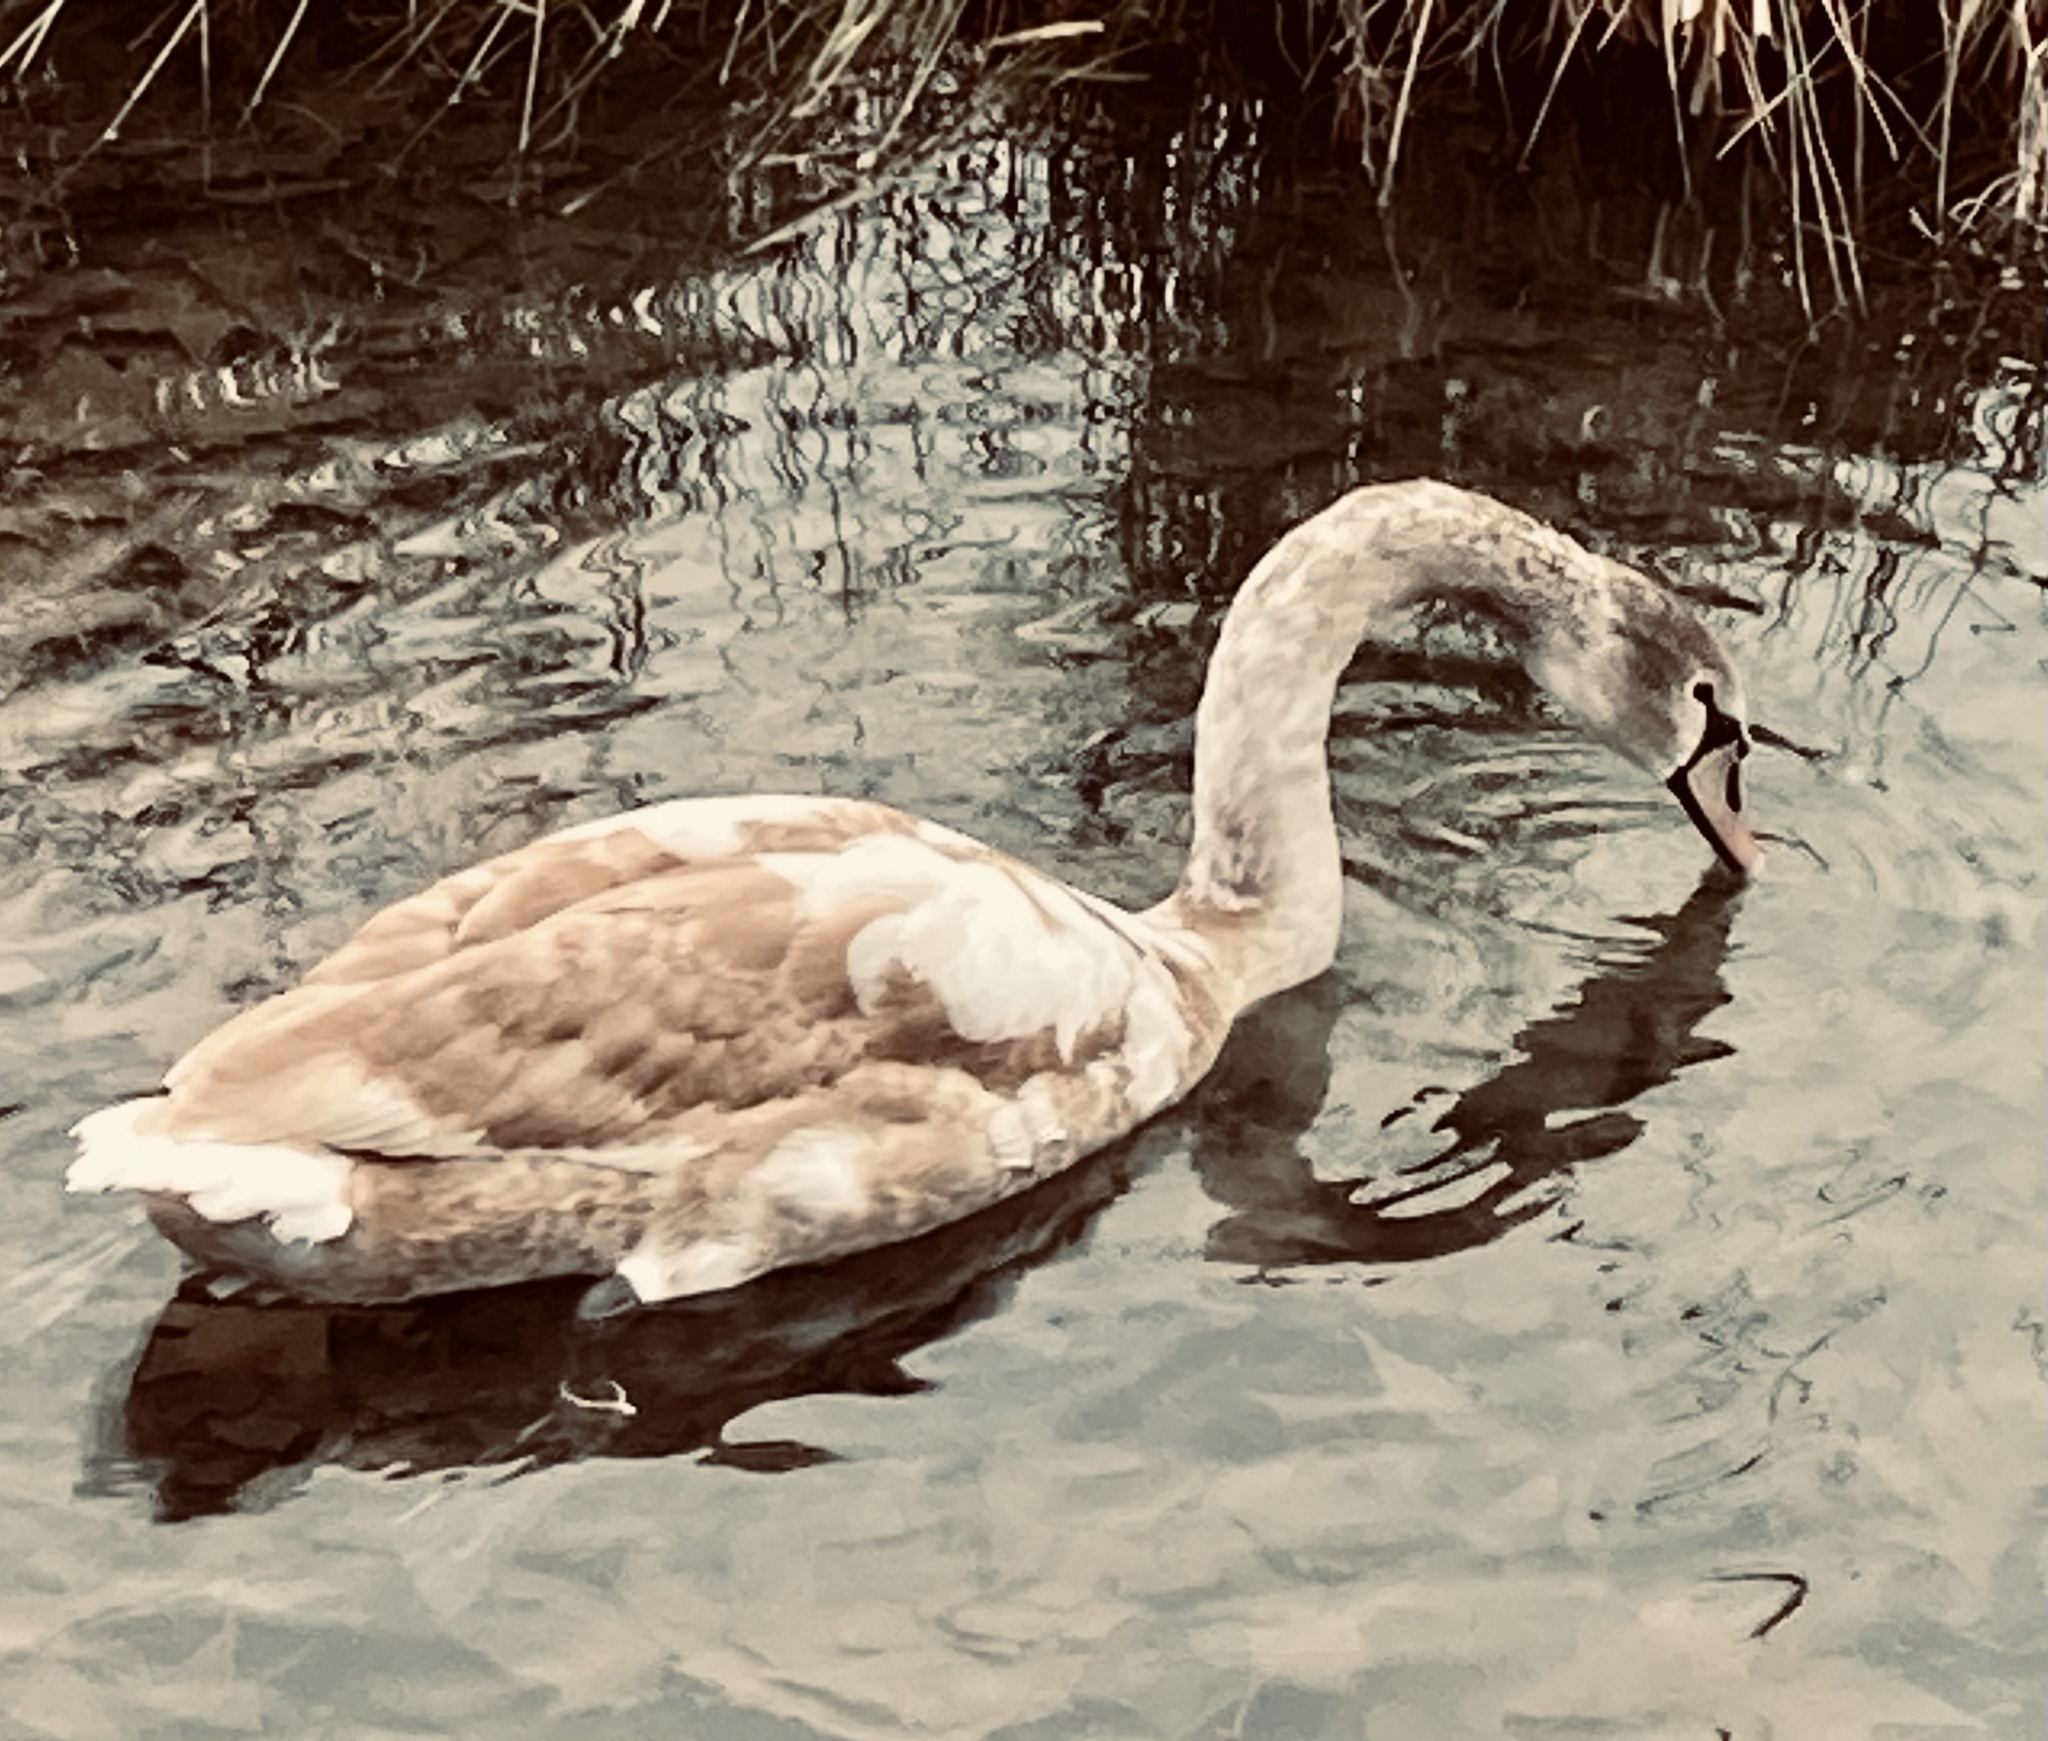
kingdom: Animalia
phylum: Chordata
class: Aves
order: Anseriformes
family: Anatidae
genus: Cygnus
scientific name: Cygnus olor
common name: Mute swan
